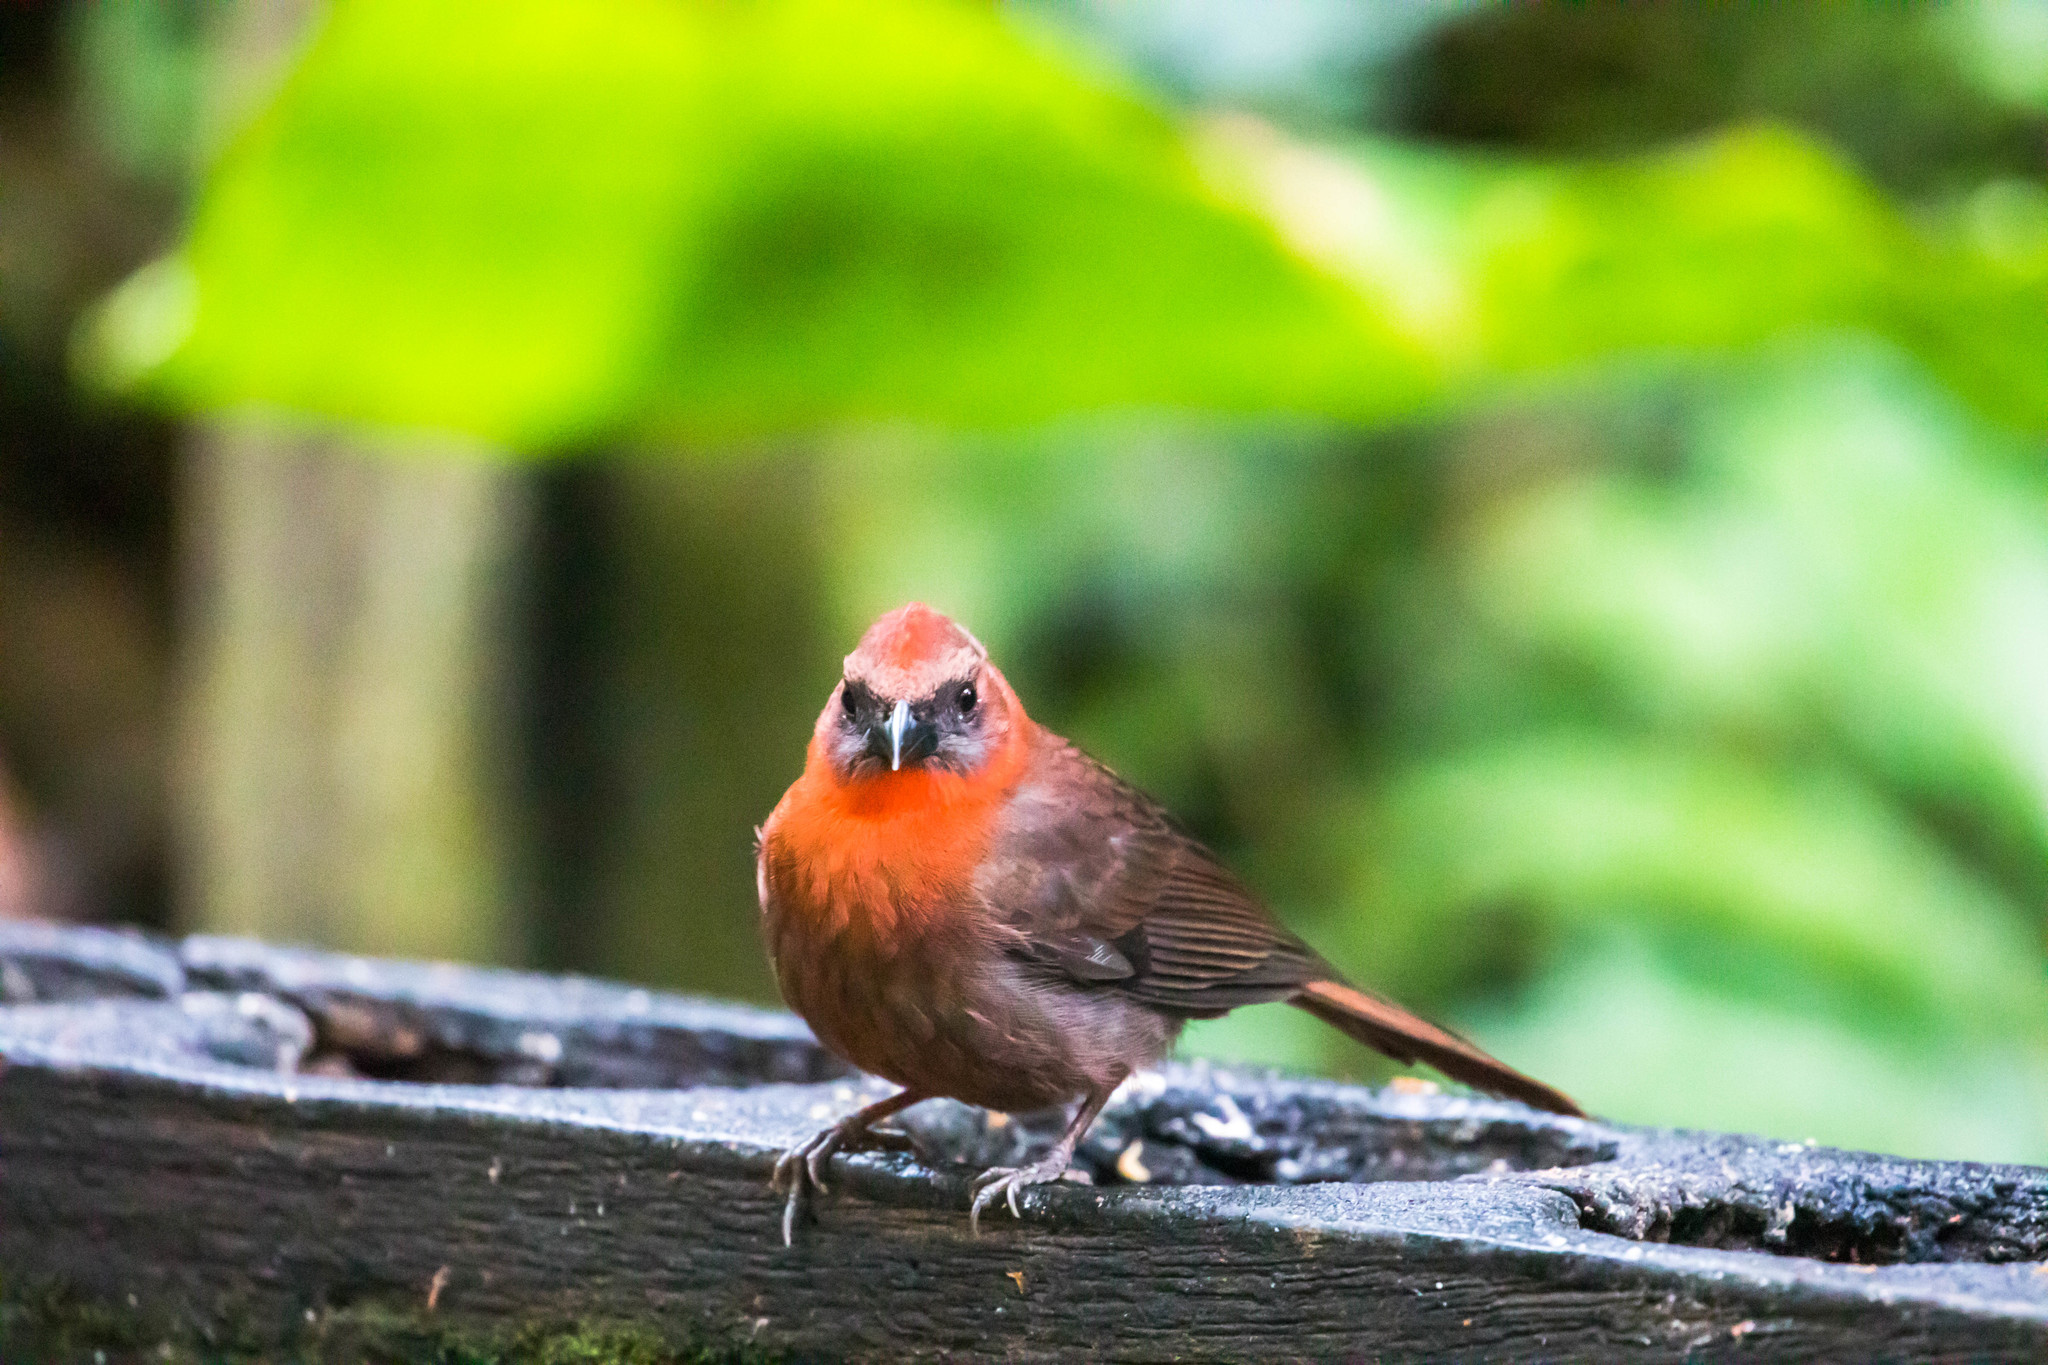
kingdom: Animalia
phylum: Chordata
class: Aves
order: Passeriformes
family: Cardinalidae
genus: Habia
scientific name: Habia fuscicauda
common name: Red-throated ant-tanager
